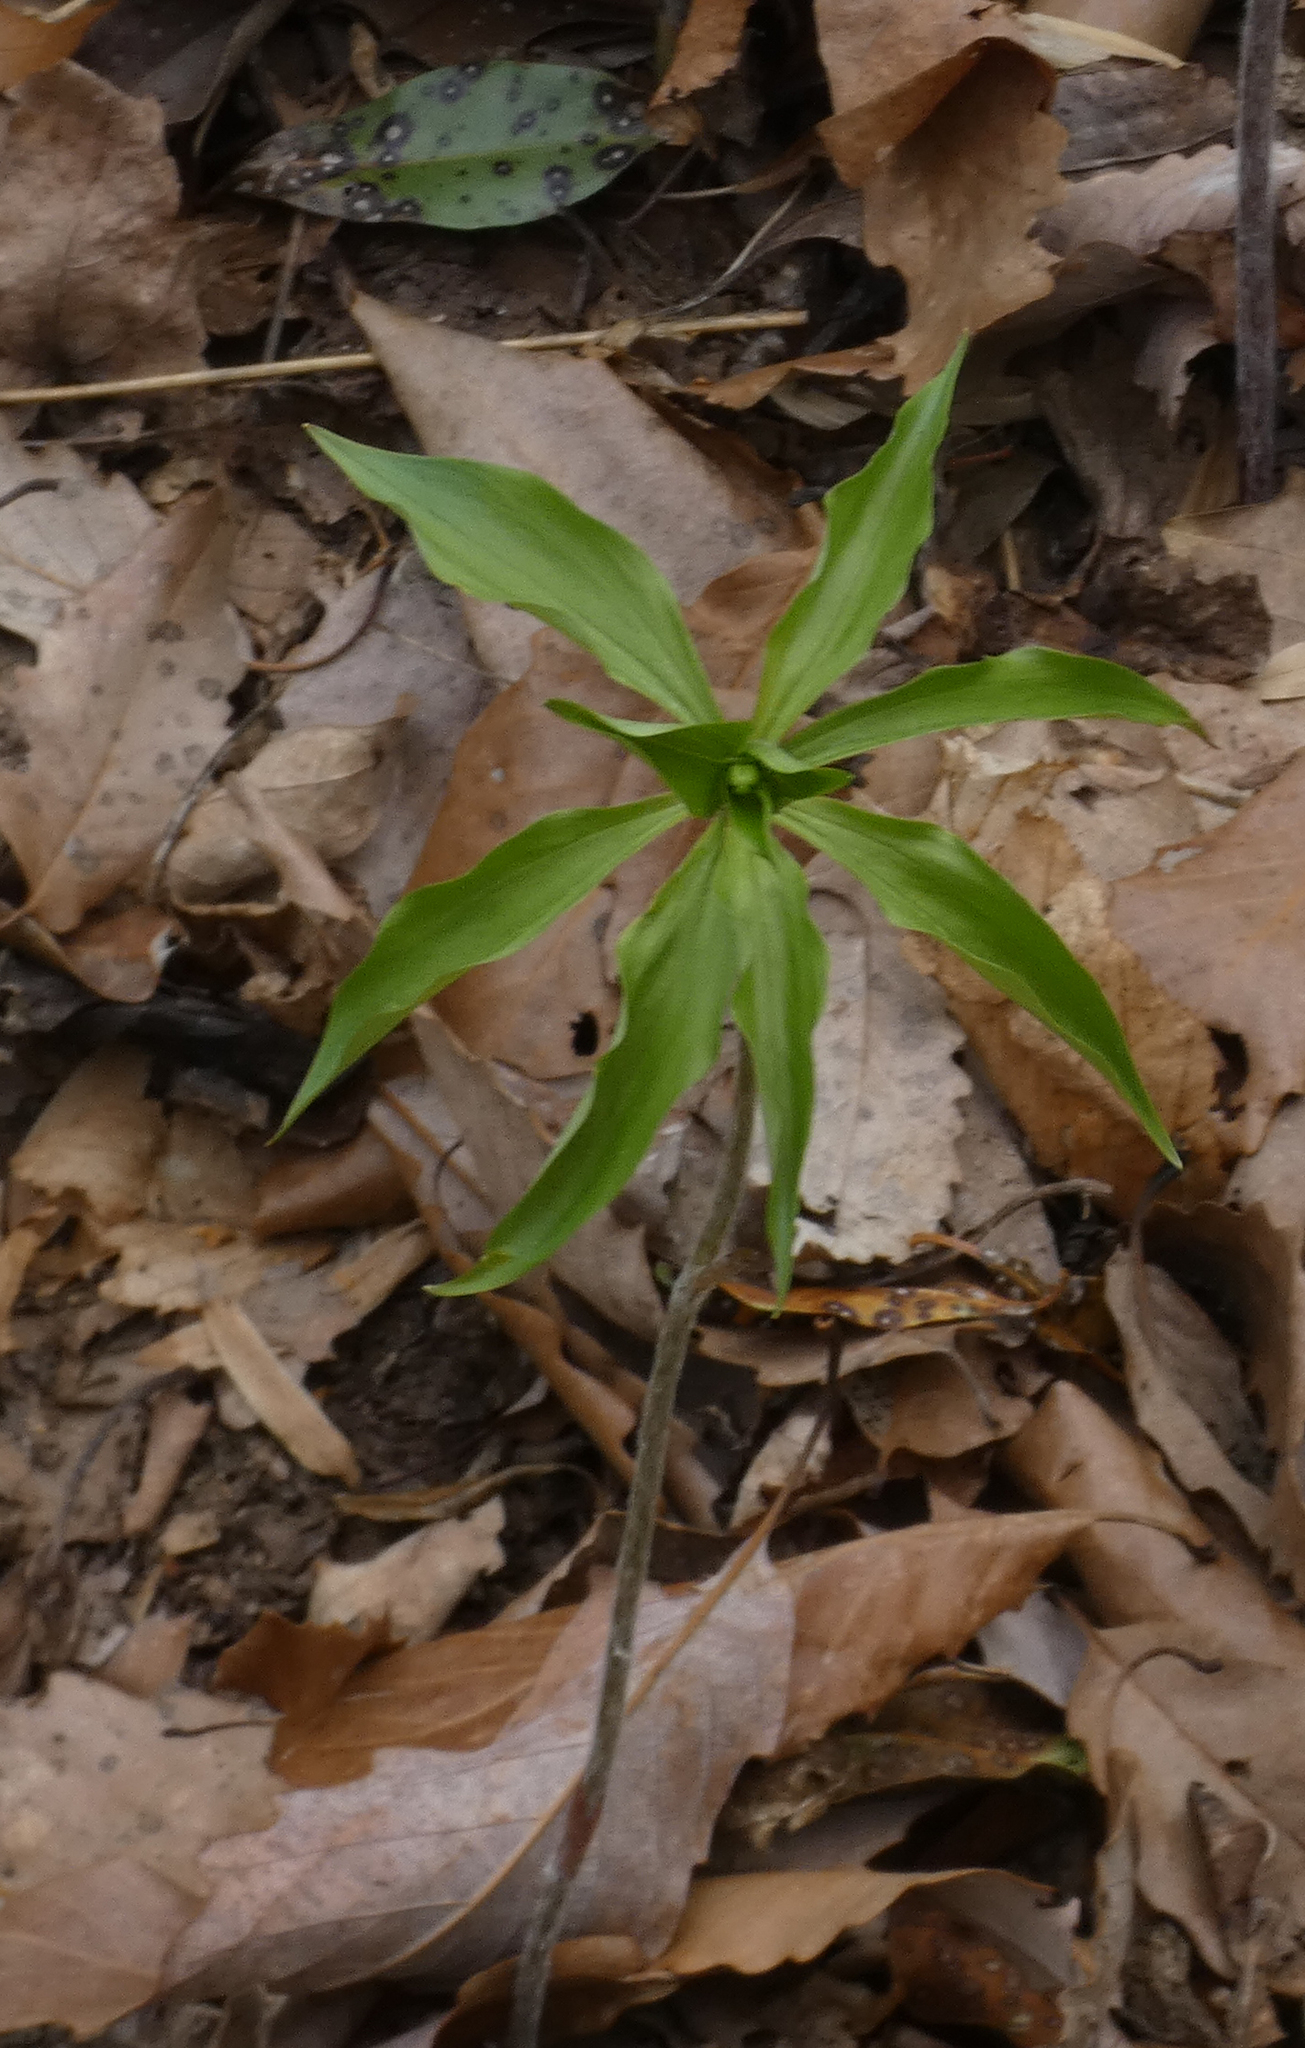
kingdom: Plantae
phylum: Tracheophyta
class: Liliopsida
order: Liliales
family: Liliaceae
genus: Medeola
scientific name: Medeola virginiana
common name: Indian cucumber-root
